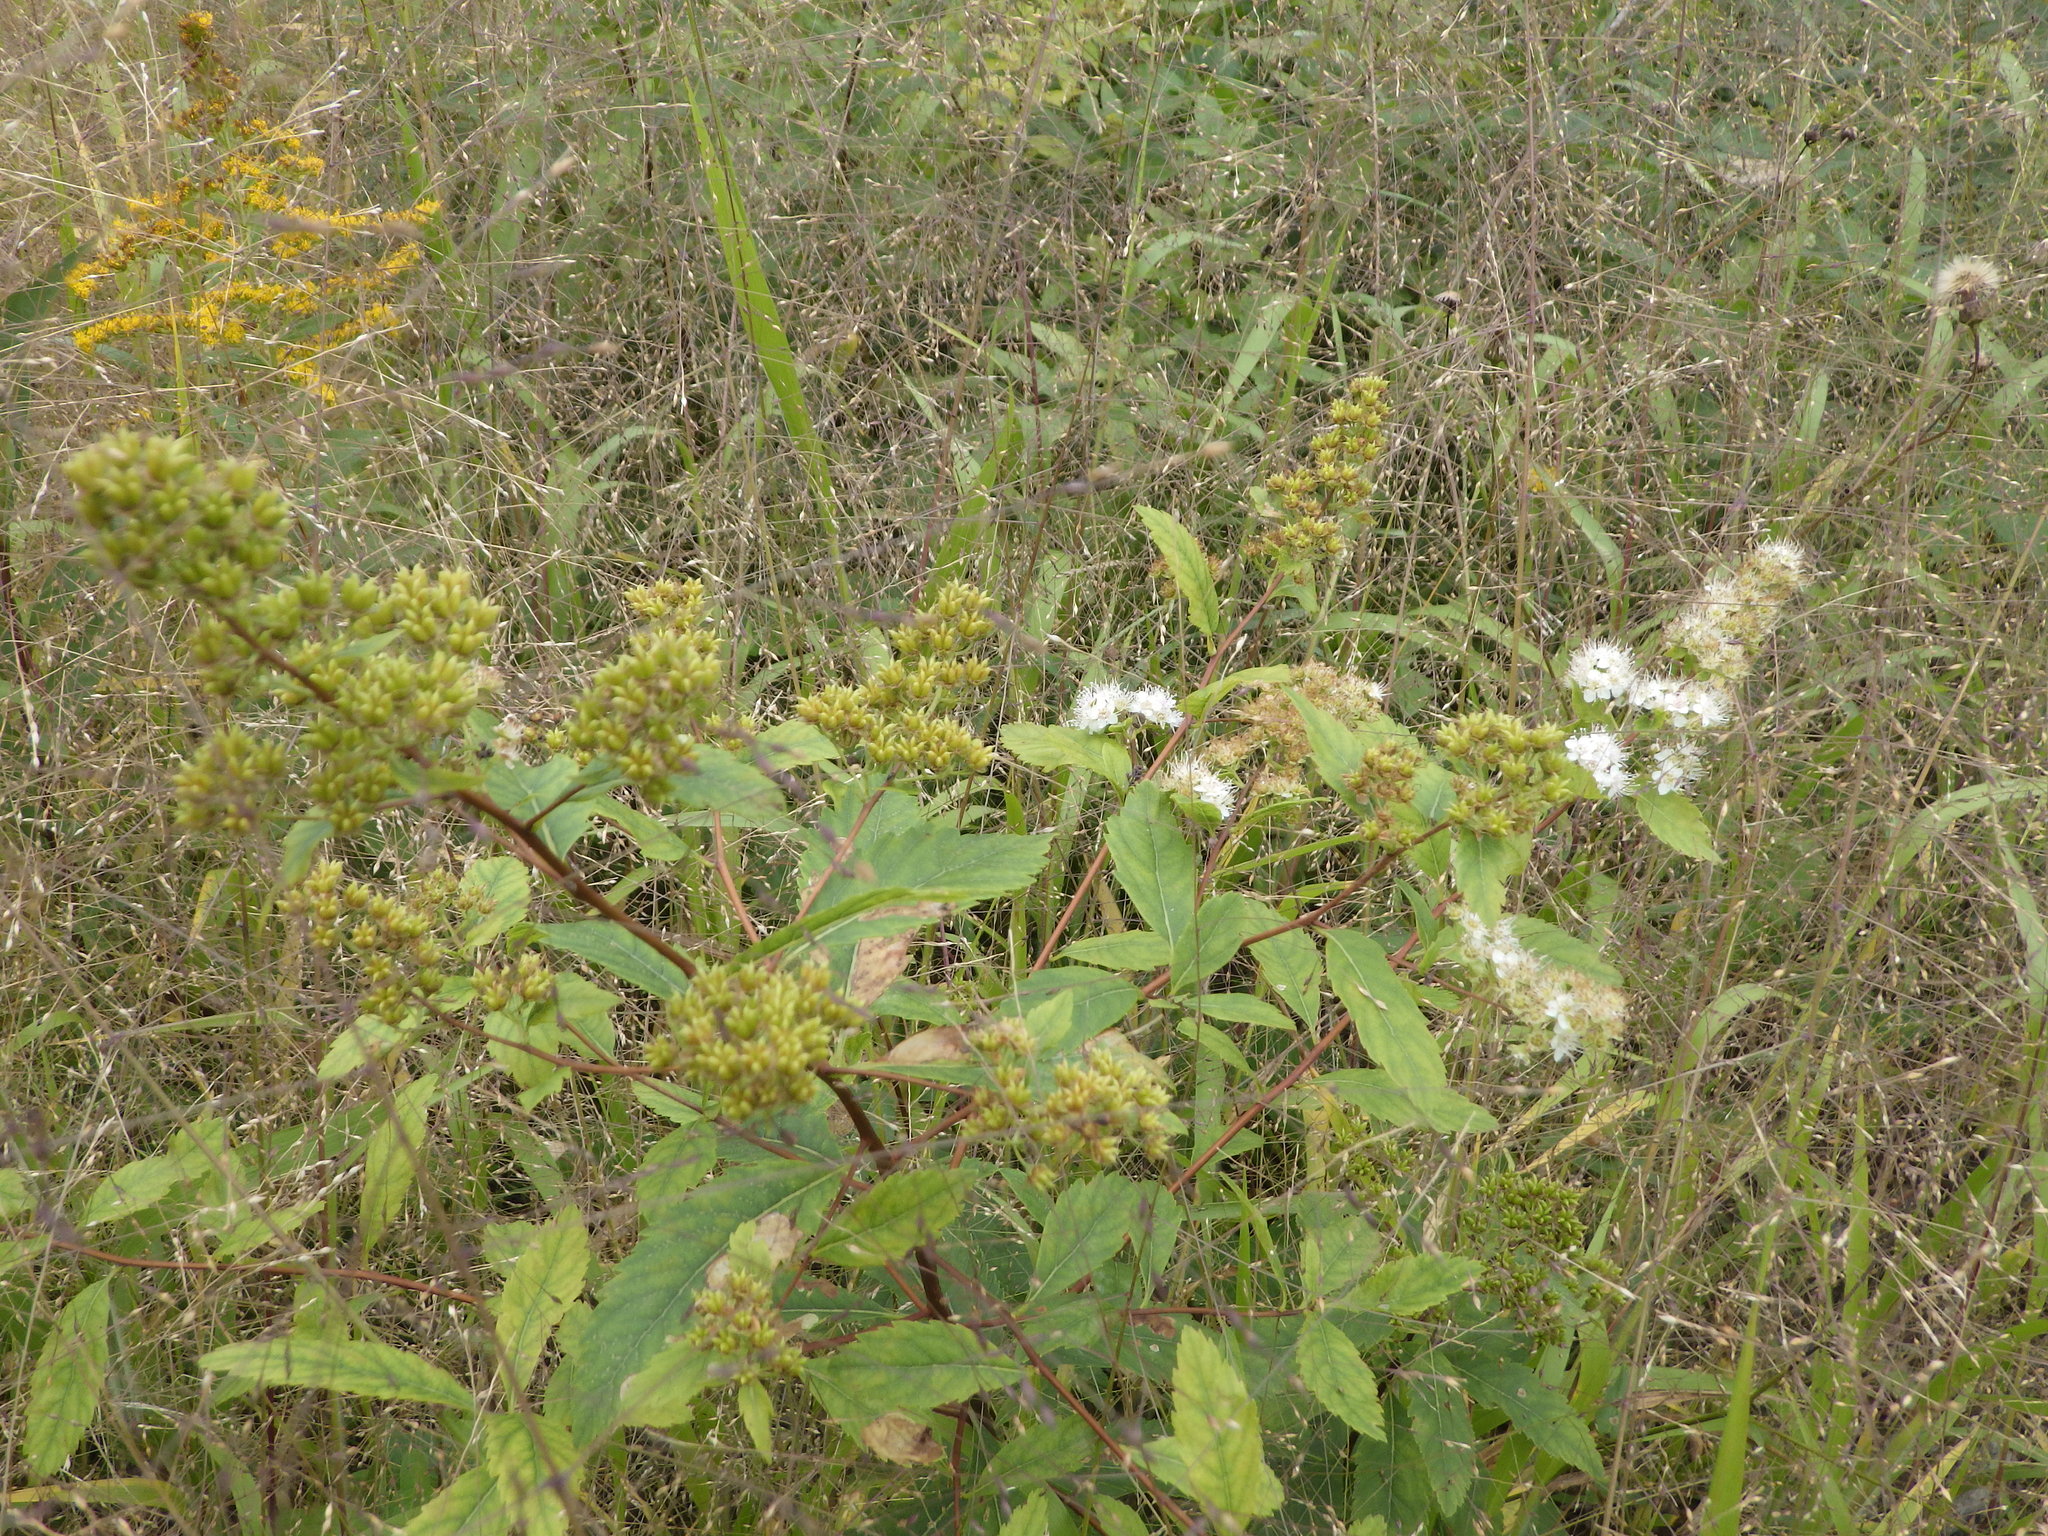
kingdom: Plantae
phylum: Tracheophyta
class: Magnoliopsida
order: Rosales
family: Rosaceae
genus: Spiraea
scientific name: Spiraea alba
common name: Pale bridewort
